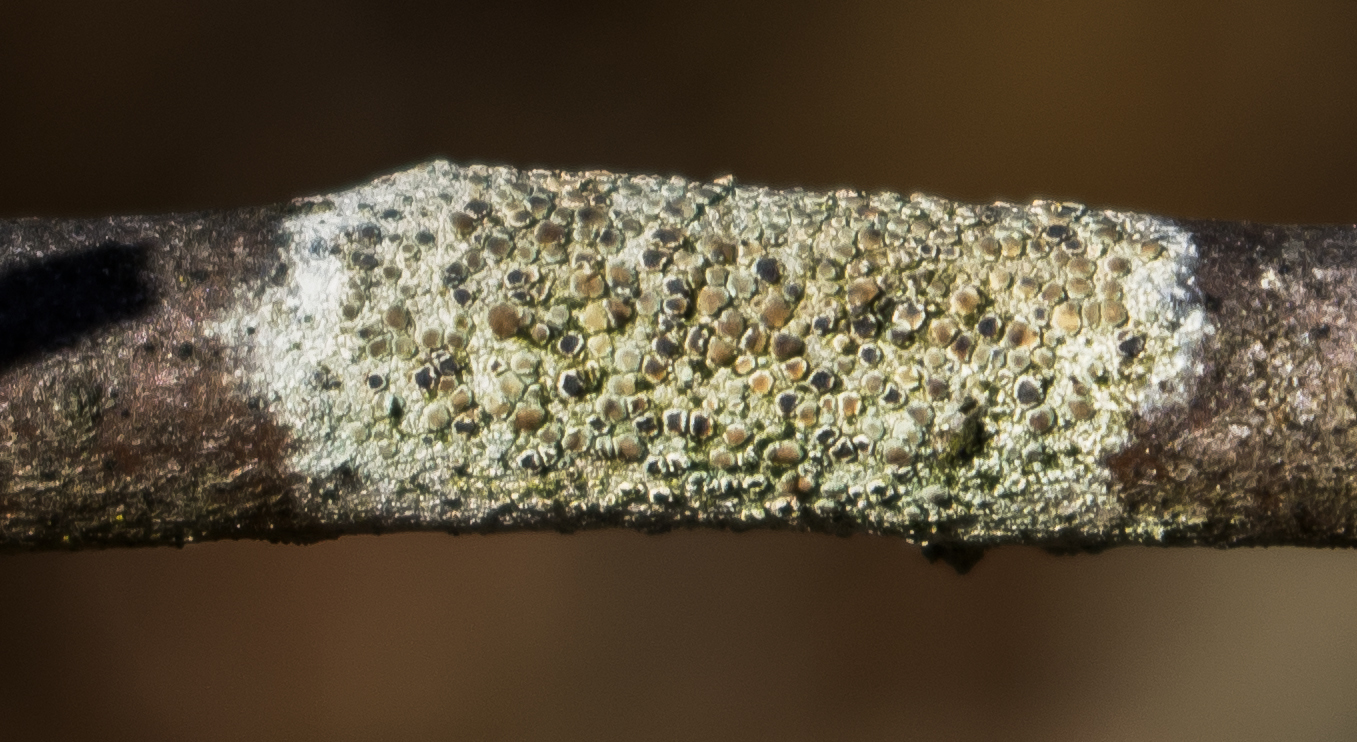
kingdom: Fungi
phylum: Ascomycota
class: Lecanoromycetes
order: Lecanorales
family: Lecanoraceae
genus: Lecanora
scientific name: Lecanora strobilina
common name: Mealy rim-lichen
